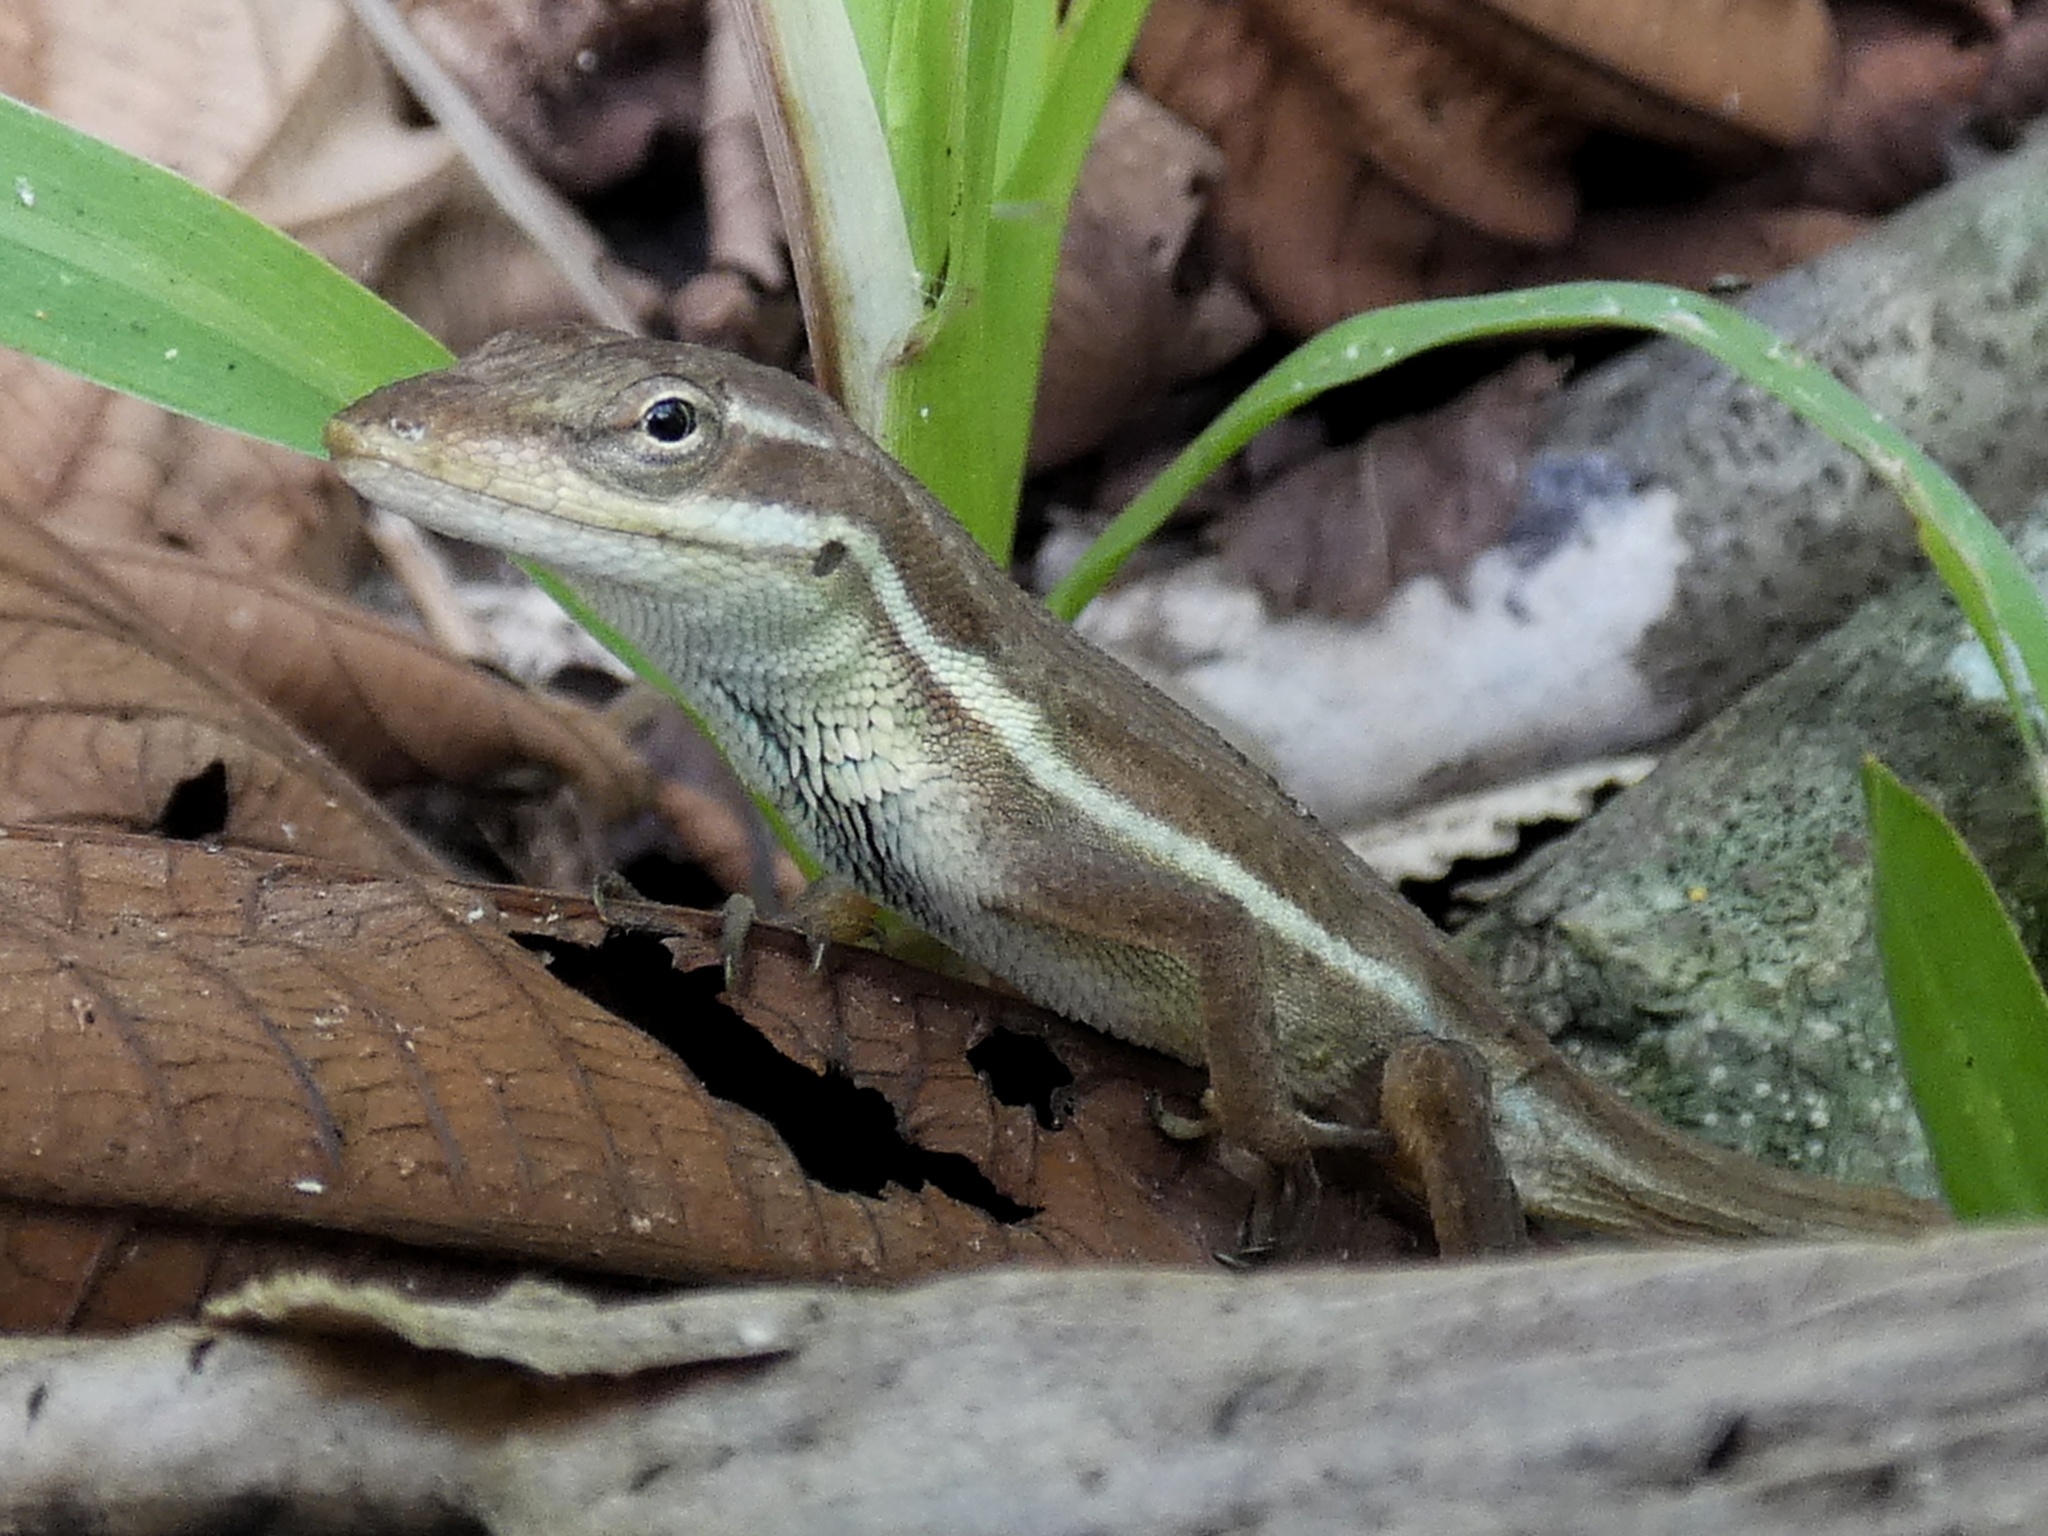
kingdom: Animalia
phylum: Chordata
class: Squamata
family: Dactyloidae
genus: Anolis
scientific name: Anolis auratus
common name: Grass anole
